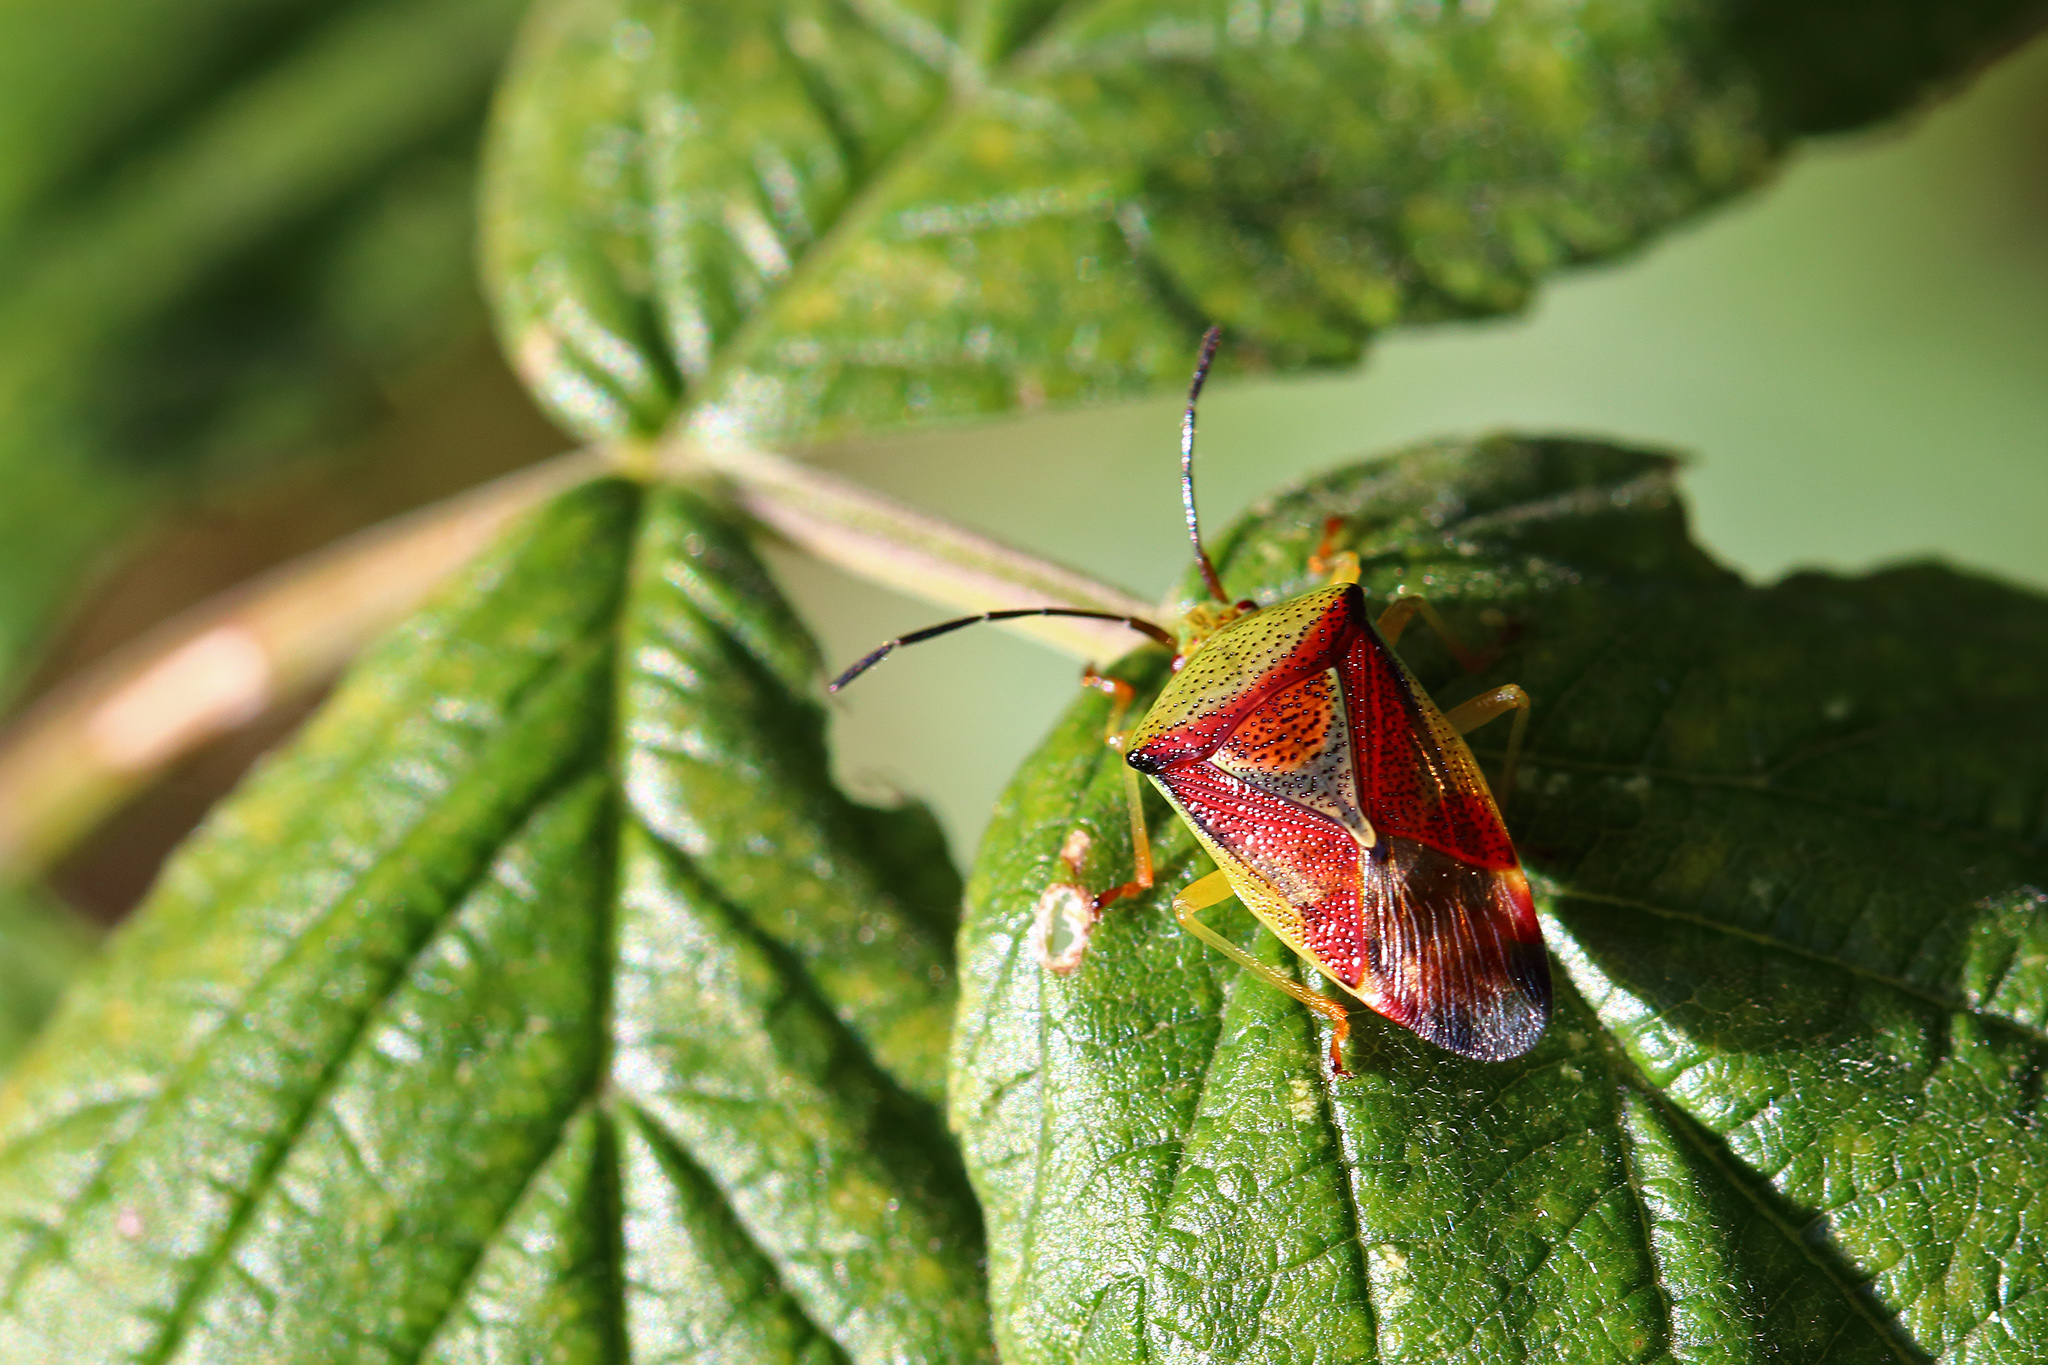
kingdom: Animalia
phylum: Arthropoda
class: Insecta
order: Hemiptera
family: Acanthosomatidae
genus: Elasmostethus
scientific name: Elasmostethus interstinctus
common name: Birch shieldbug
